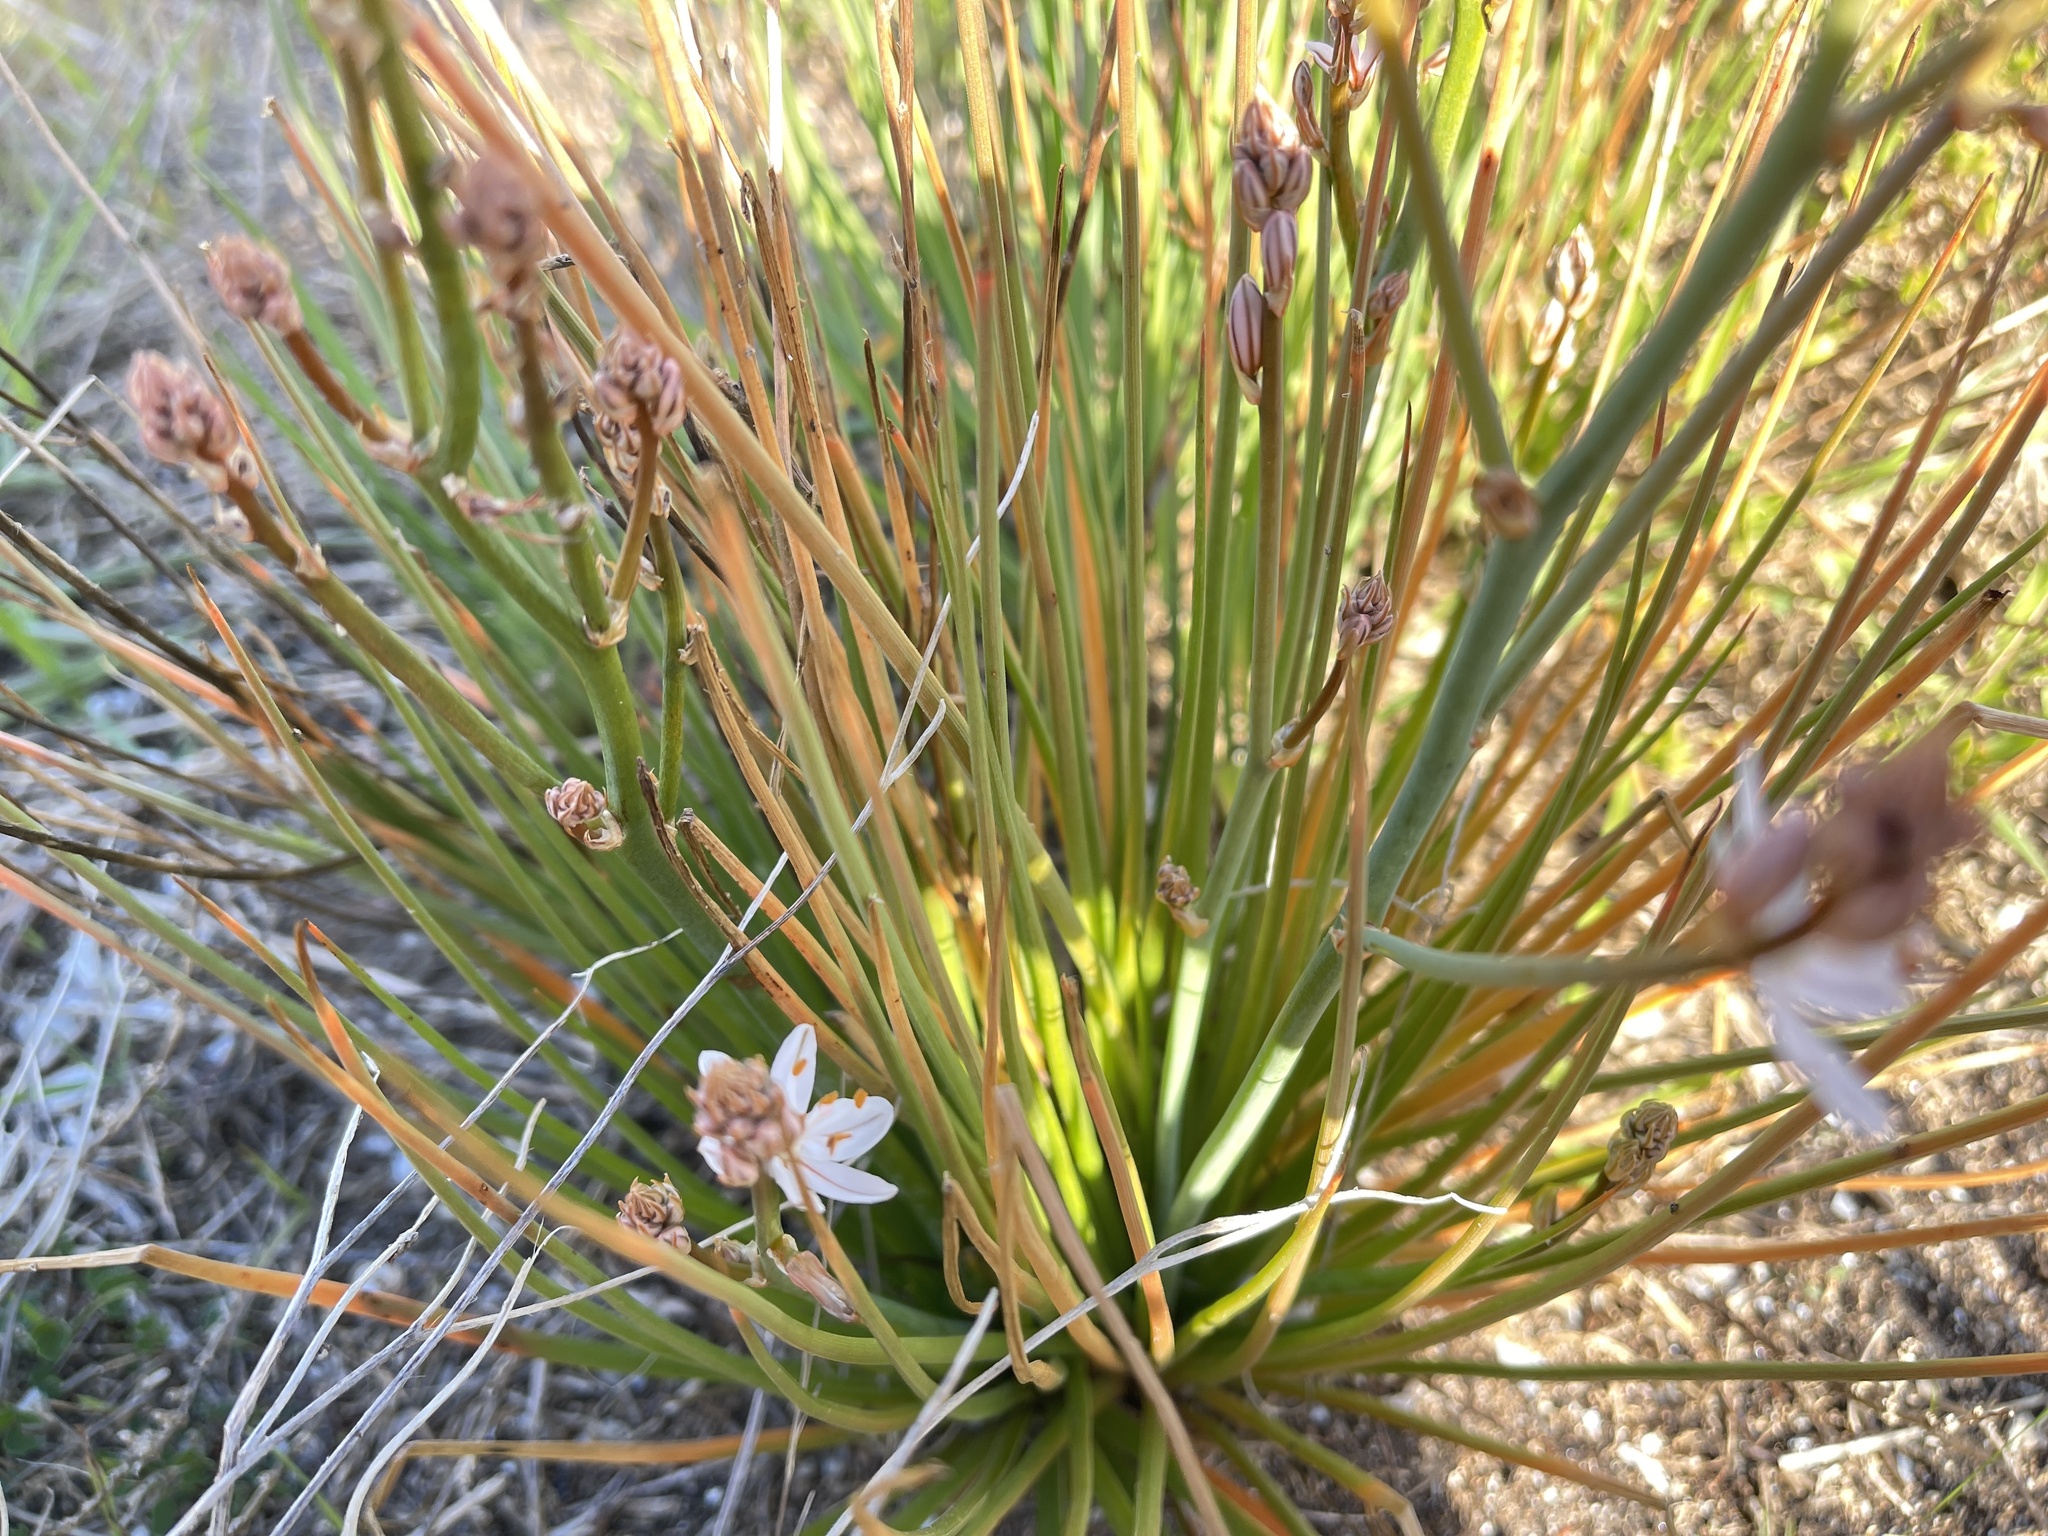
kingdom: Plantae
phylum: Tracheophyta
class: Liliopsida
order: Asparagales
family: Asphodelaceae
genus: Asphodelus
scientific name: Asphodelus fistulosus
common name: Onionweed
